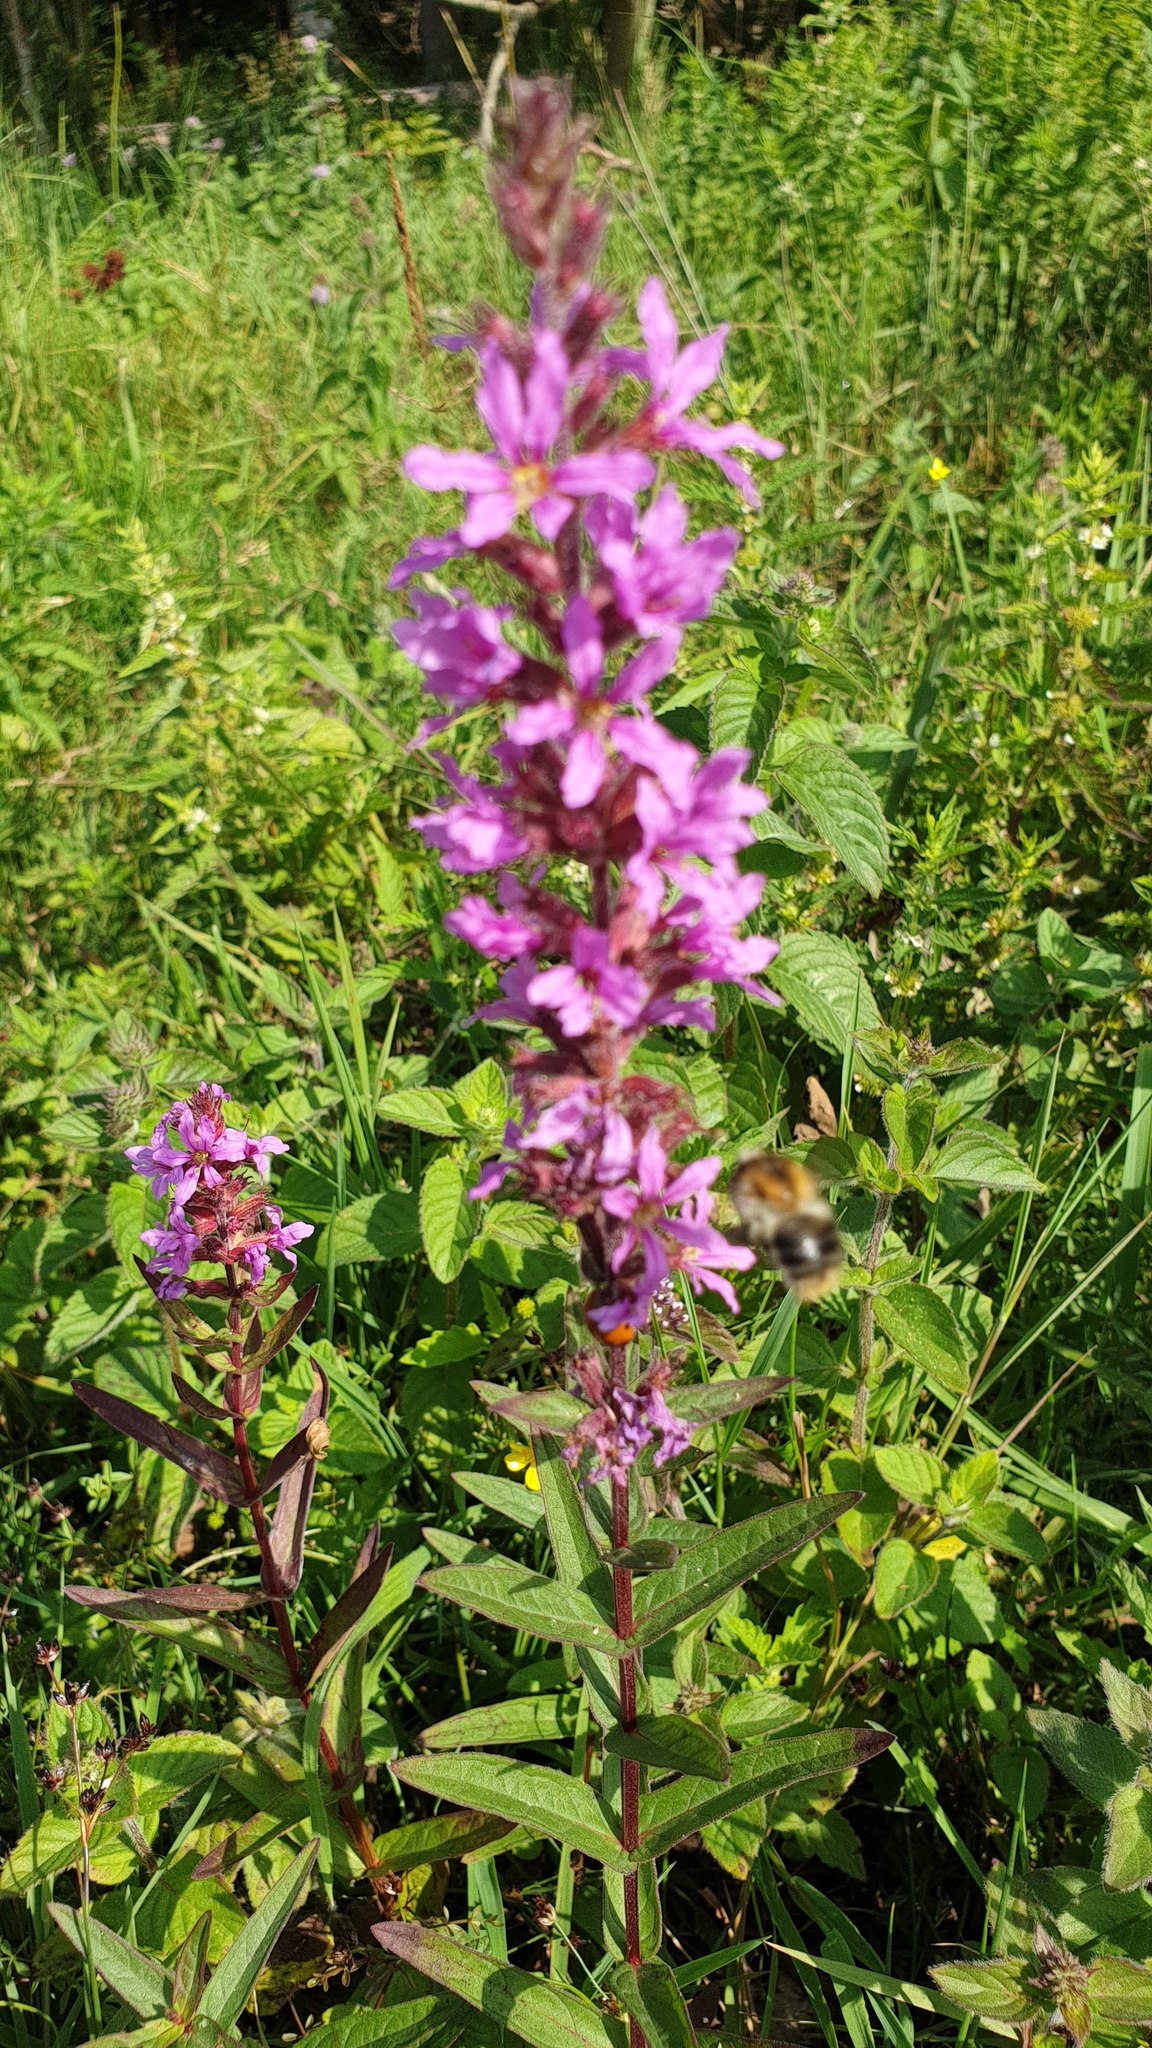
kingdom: Plantae
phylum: Tracheophyta
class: Magnoliopsida
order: Myrtales
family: Lythraceae
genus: Lythrum
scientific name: Lythrum salicaria
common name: Purple loosestrife
